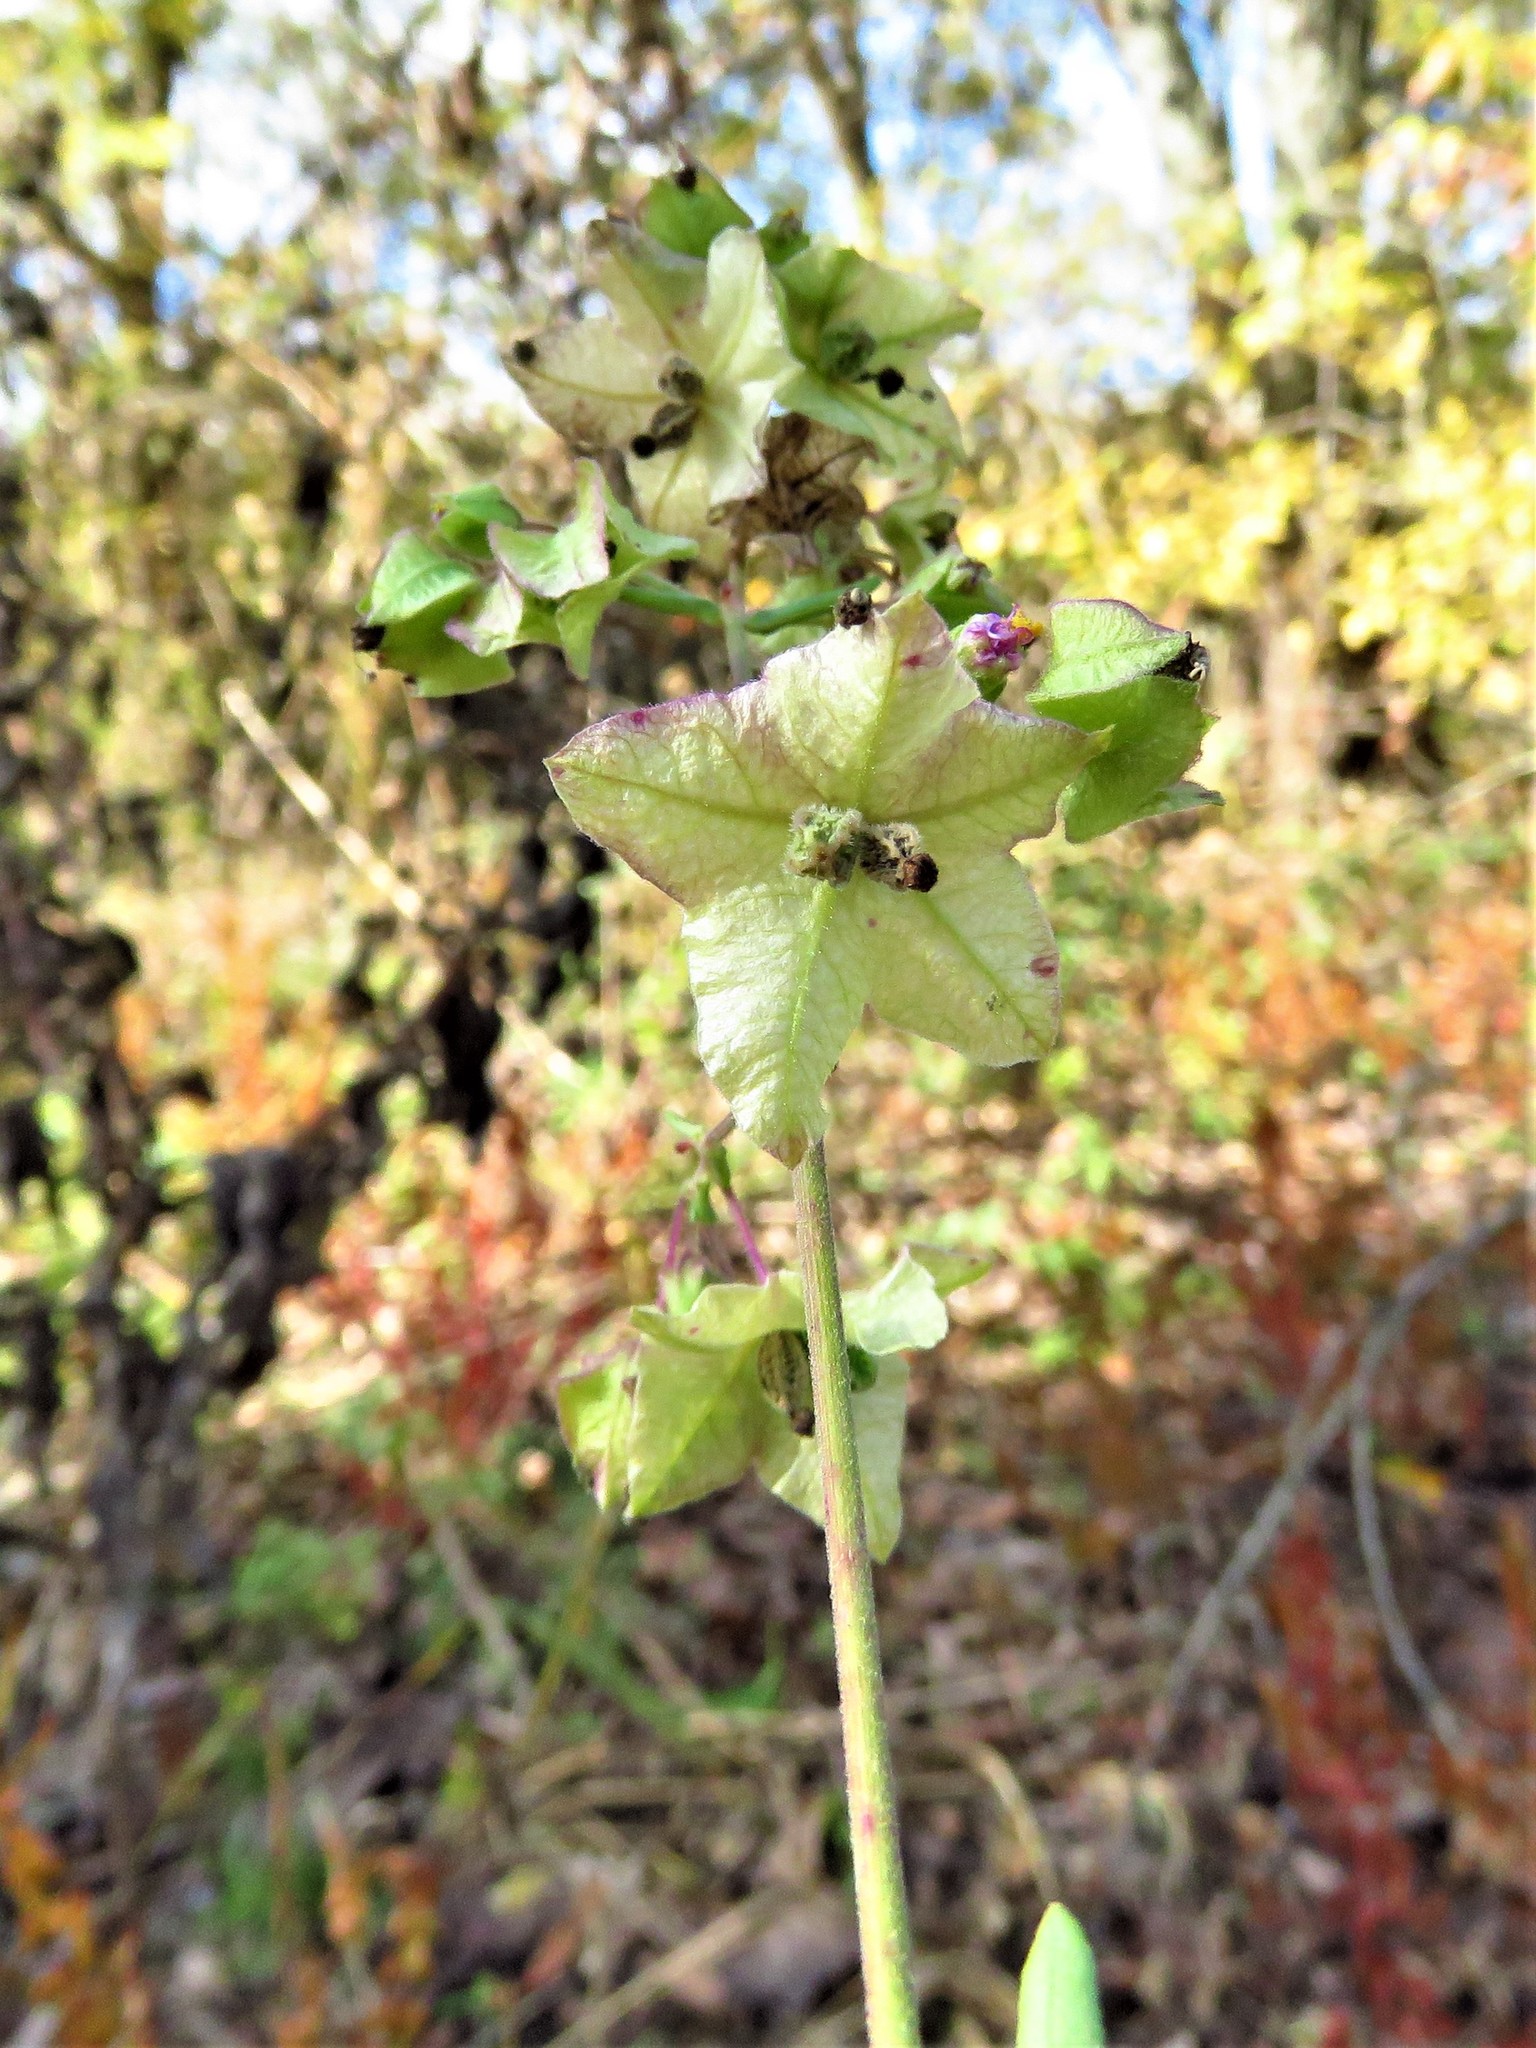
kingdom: Plantae
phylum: Tracheophyta
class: Magnoliopsida
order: Caryophyllales
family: Nyctaginaceae
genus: Mirabilis
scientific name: Mirabilis albida
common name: Hairy four-o'clock
